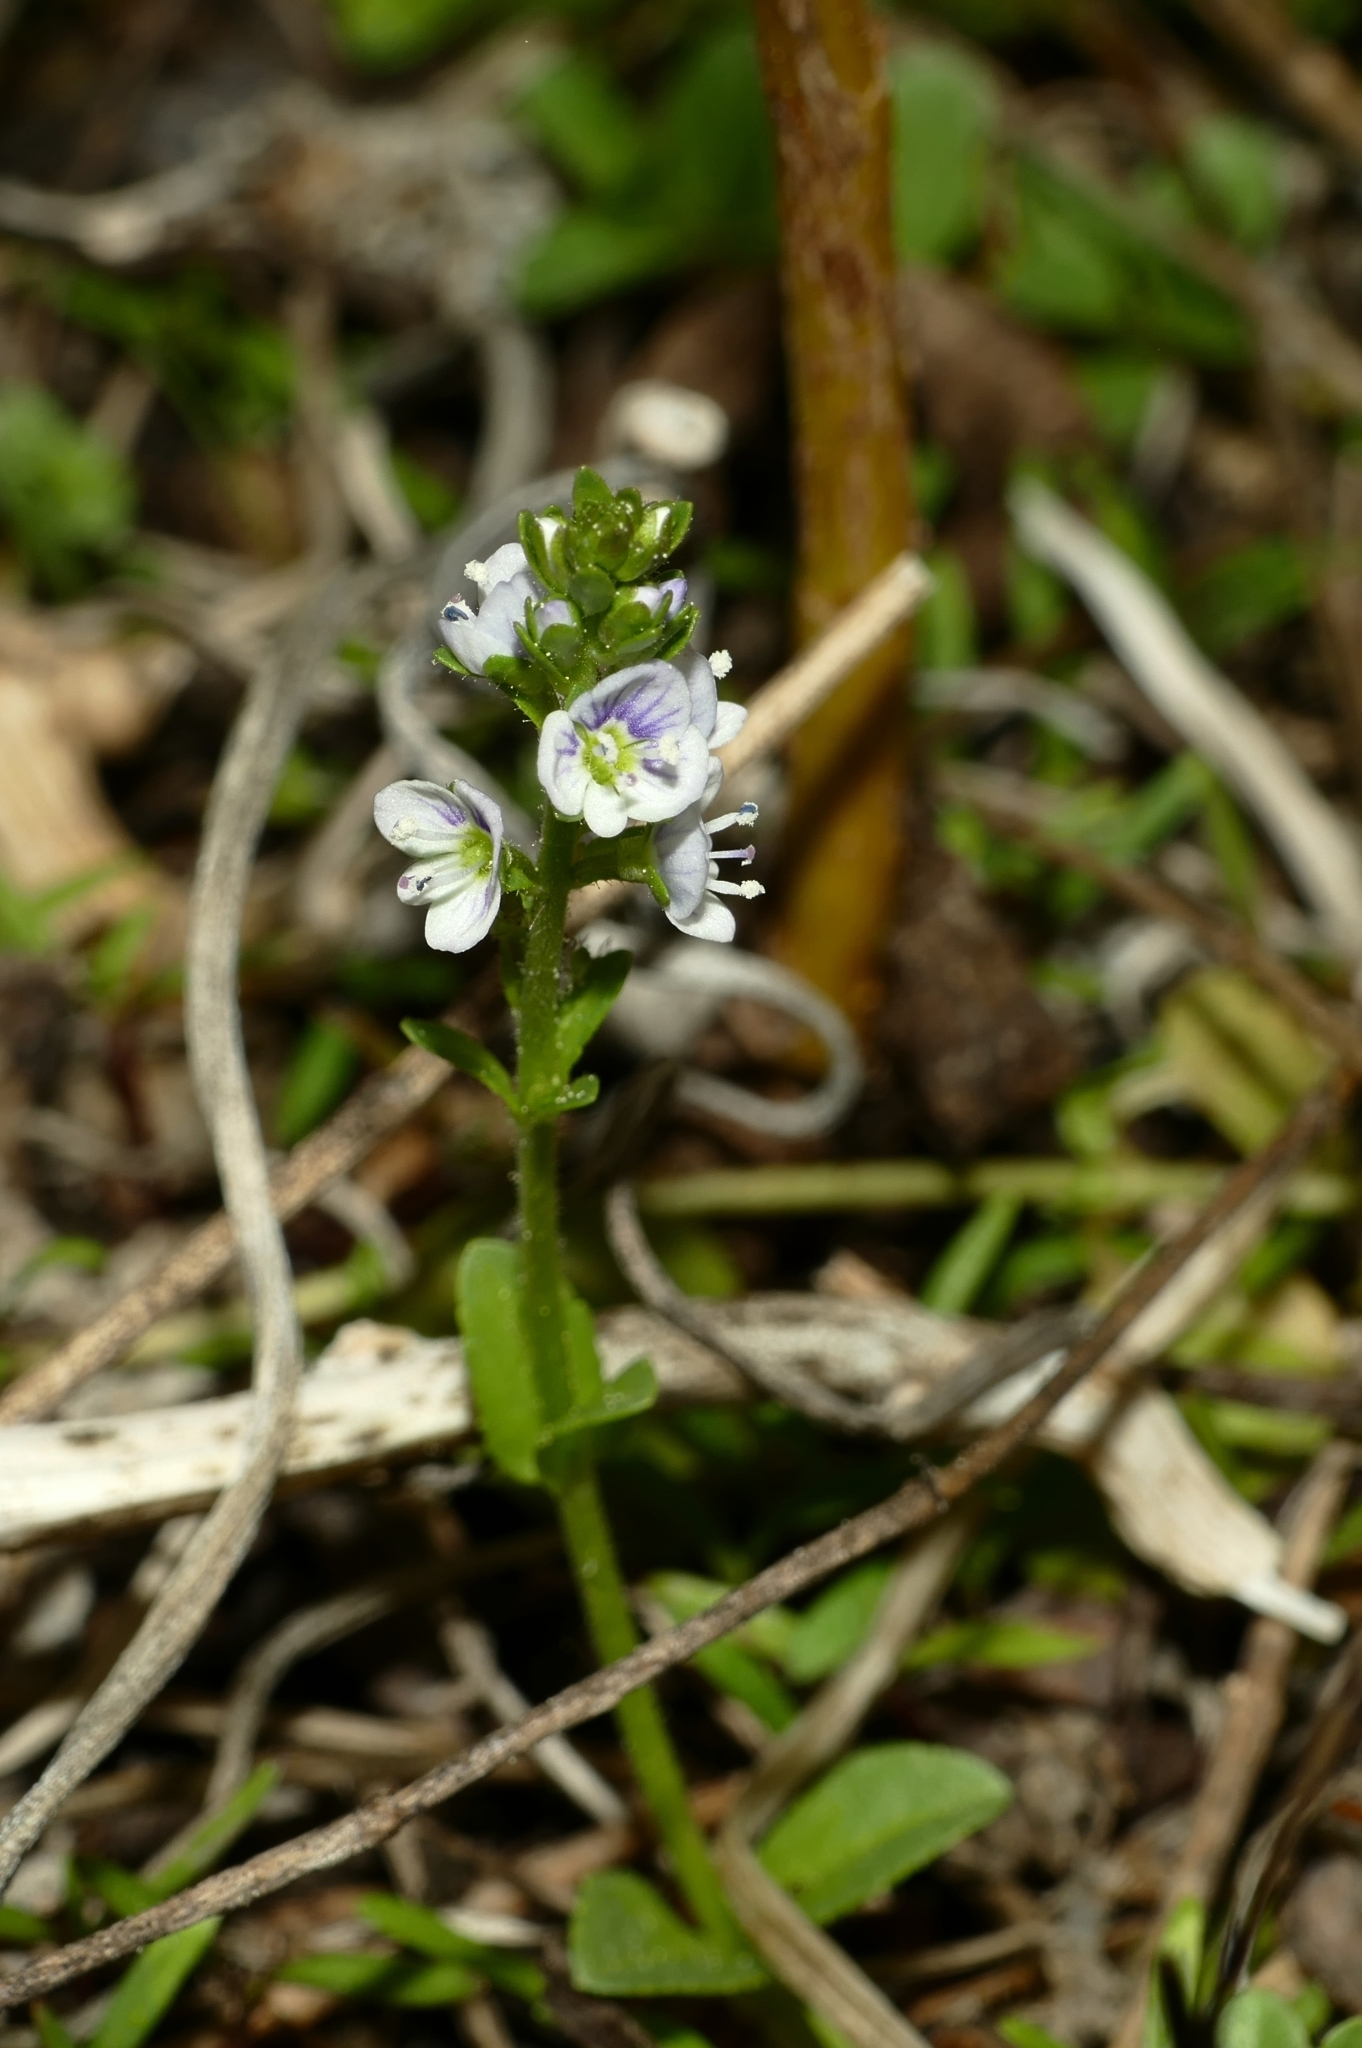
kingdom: Plantae
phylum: Tracheophyta
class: Magnoliopsida
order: Lamiales
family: Plantaginaceae
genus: Veronica
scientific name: Veronica serpyllifolia
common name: Thyme-leaved speedwell
